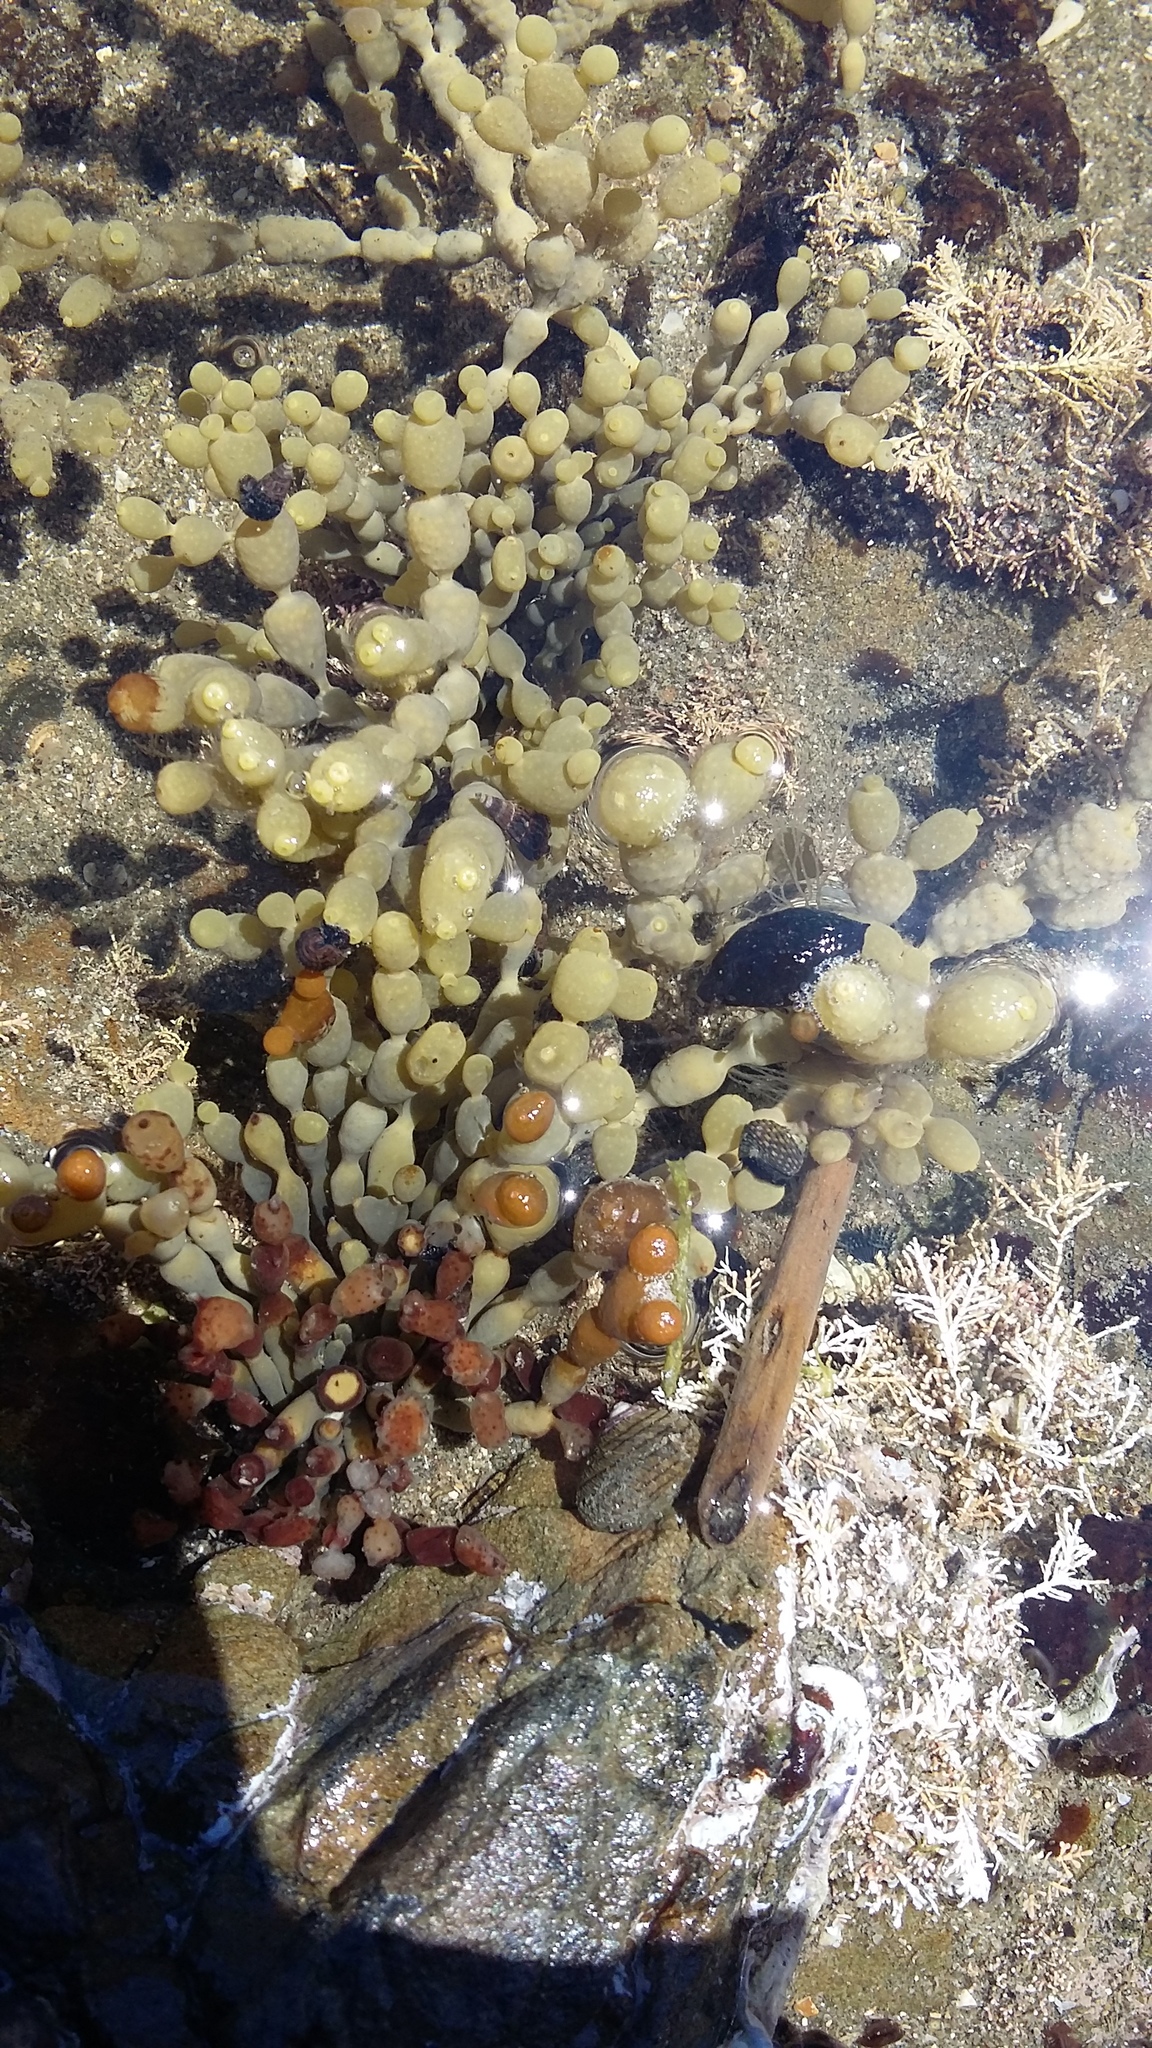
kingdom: Chromista
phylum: Ochrophyta
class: Phaeophyceae
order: Fucales
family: Hormosiraceae
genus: Hormosira
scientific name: Hormosira banksii
